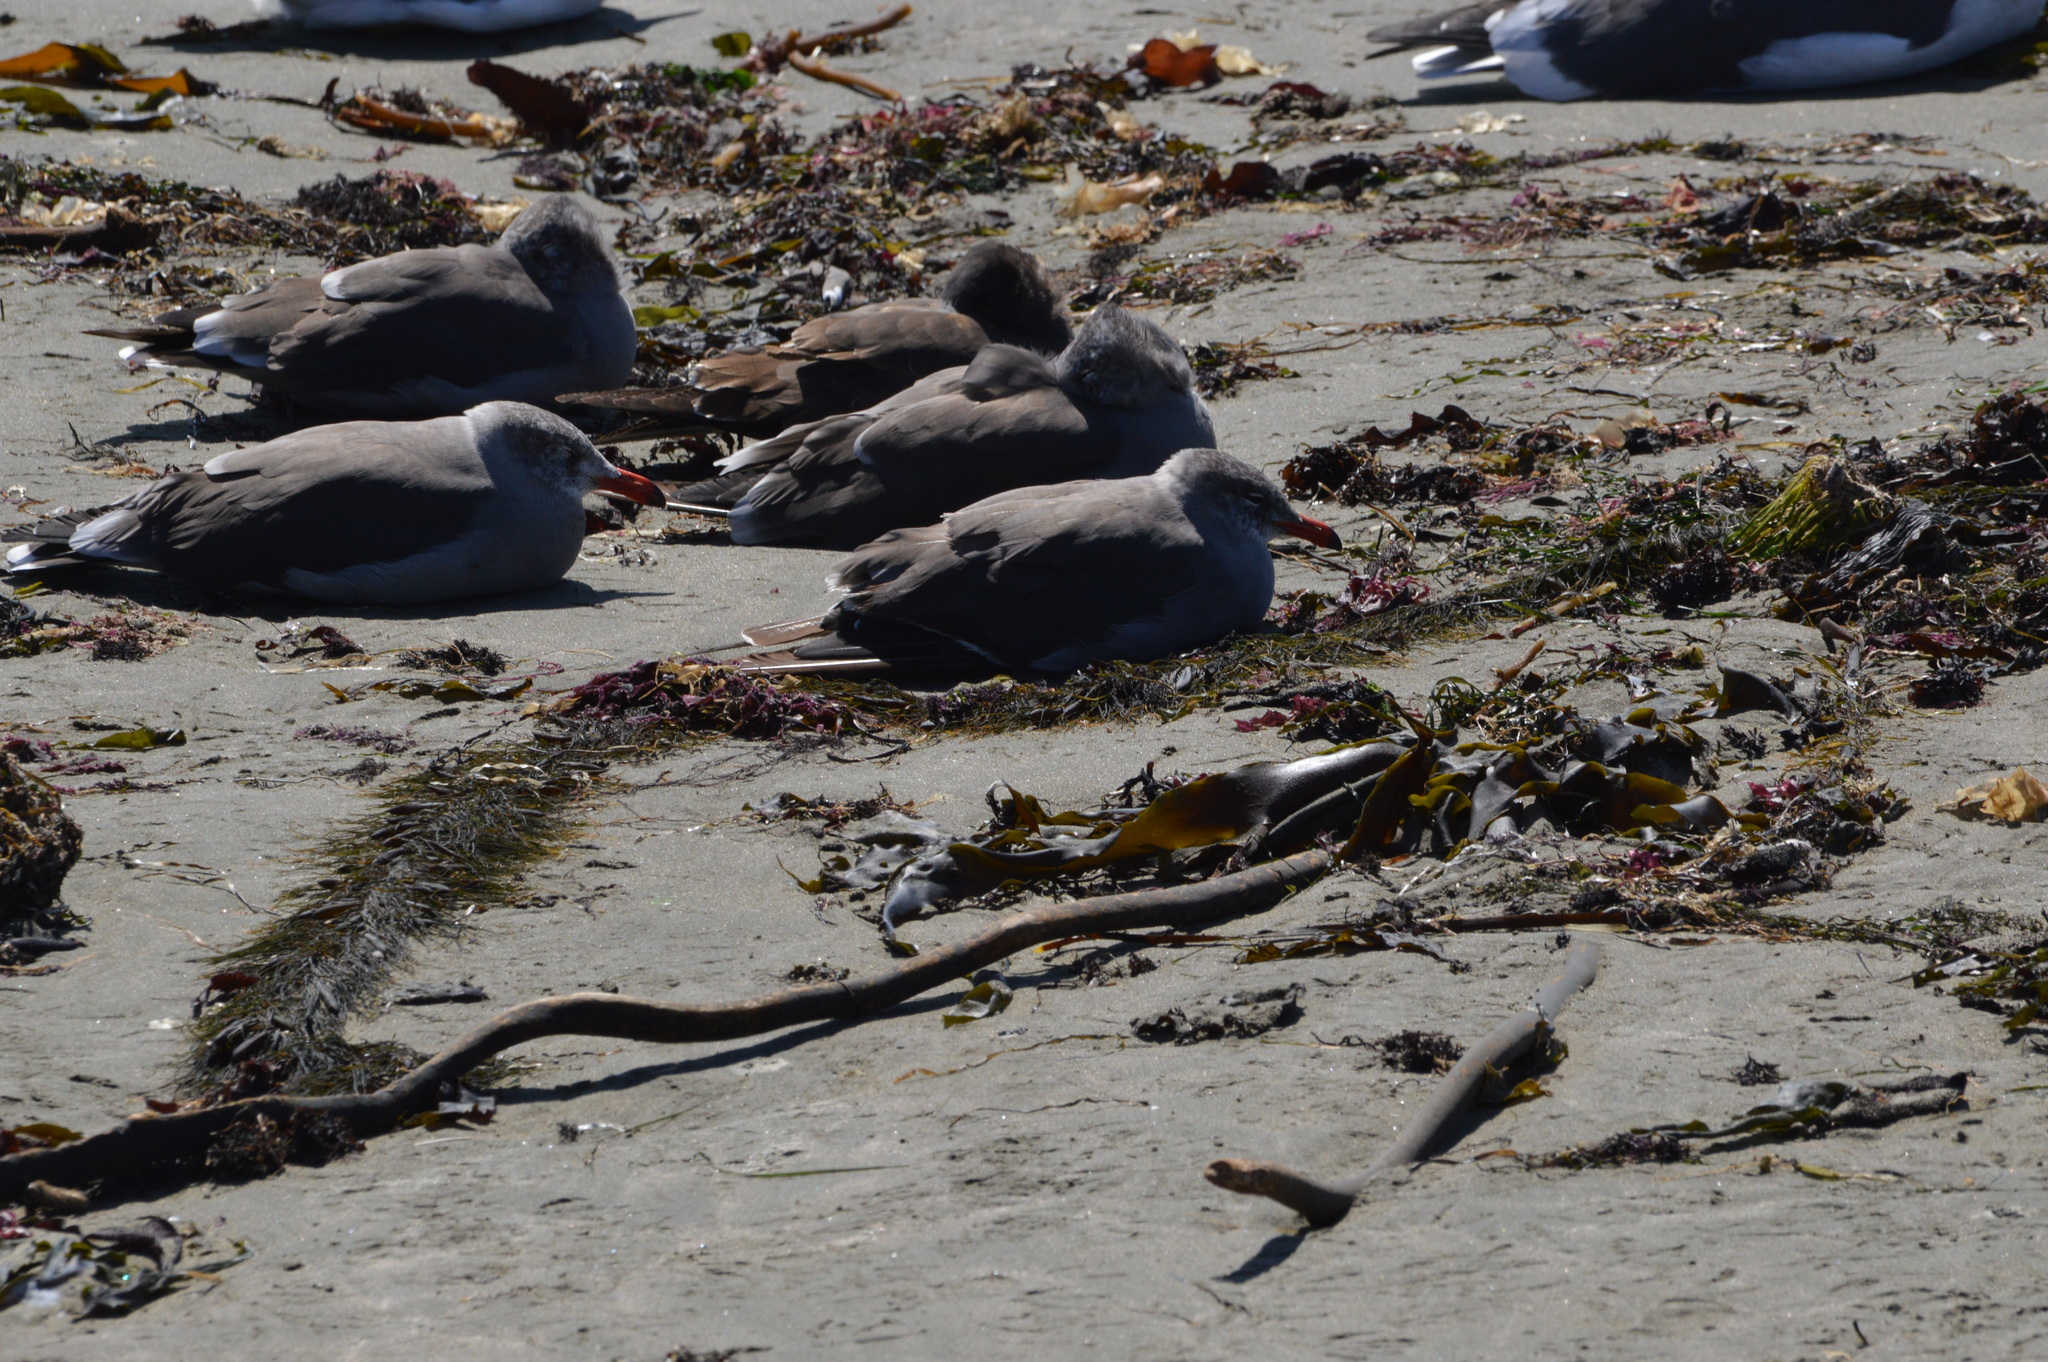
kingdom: Animalia
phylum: Chordata
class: Aves
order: Charadriiformes
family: Laridae
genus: Larus
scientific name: Larus heermanni
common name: Heermann's gull
